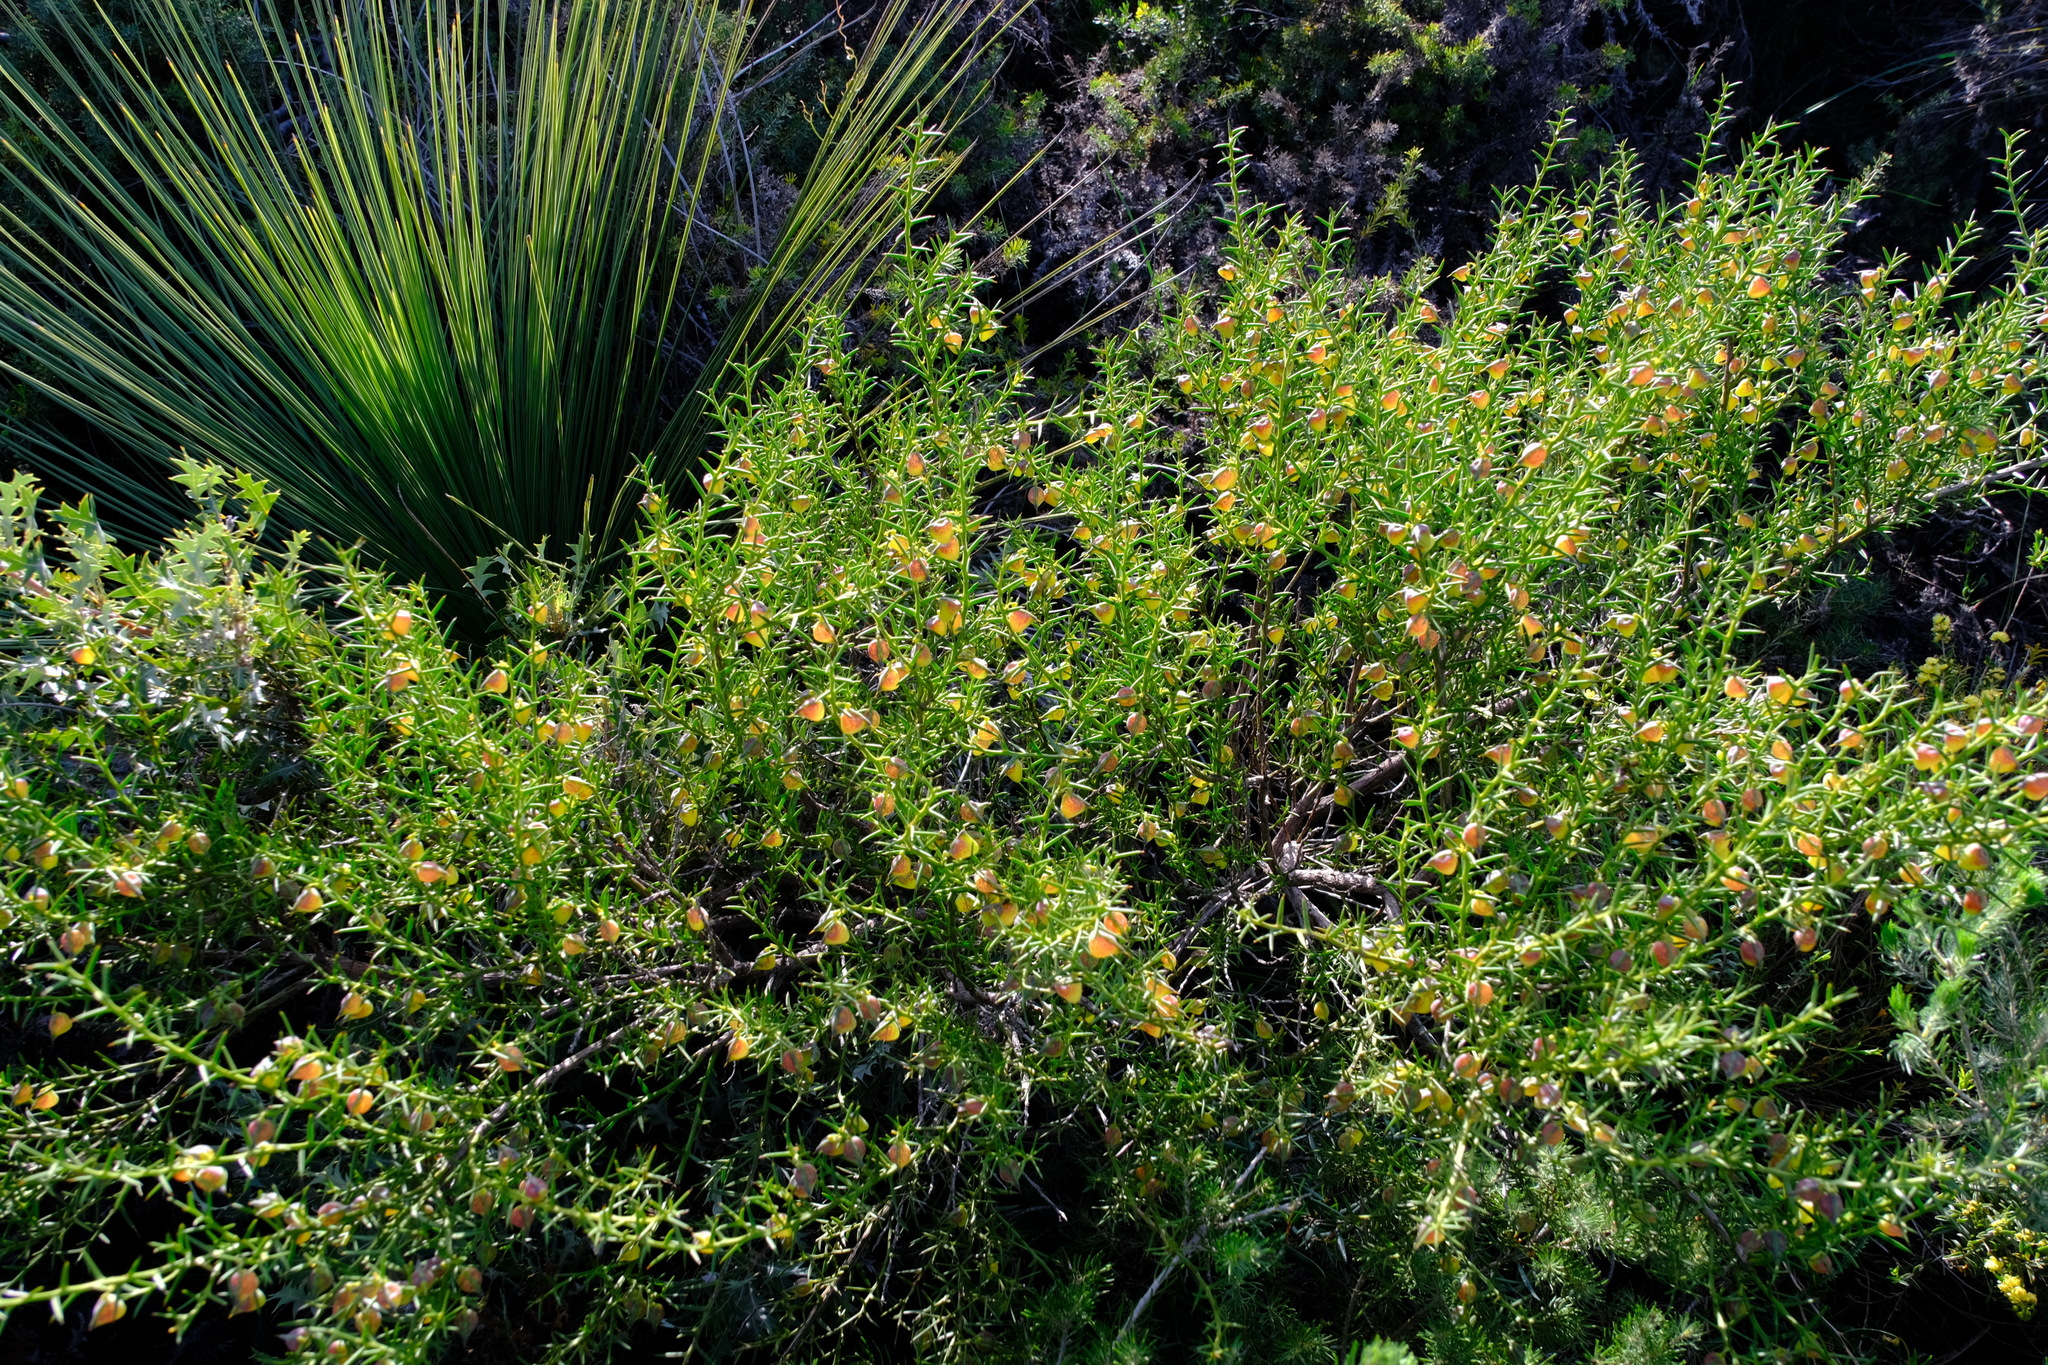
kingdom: Plantae
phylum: Tracheophyta
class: Magnoliopsida
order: Fabales
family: Fabaceae
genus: Daviesia
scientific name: Daviesia angulata
